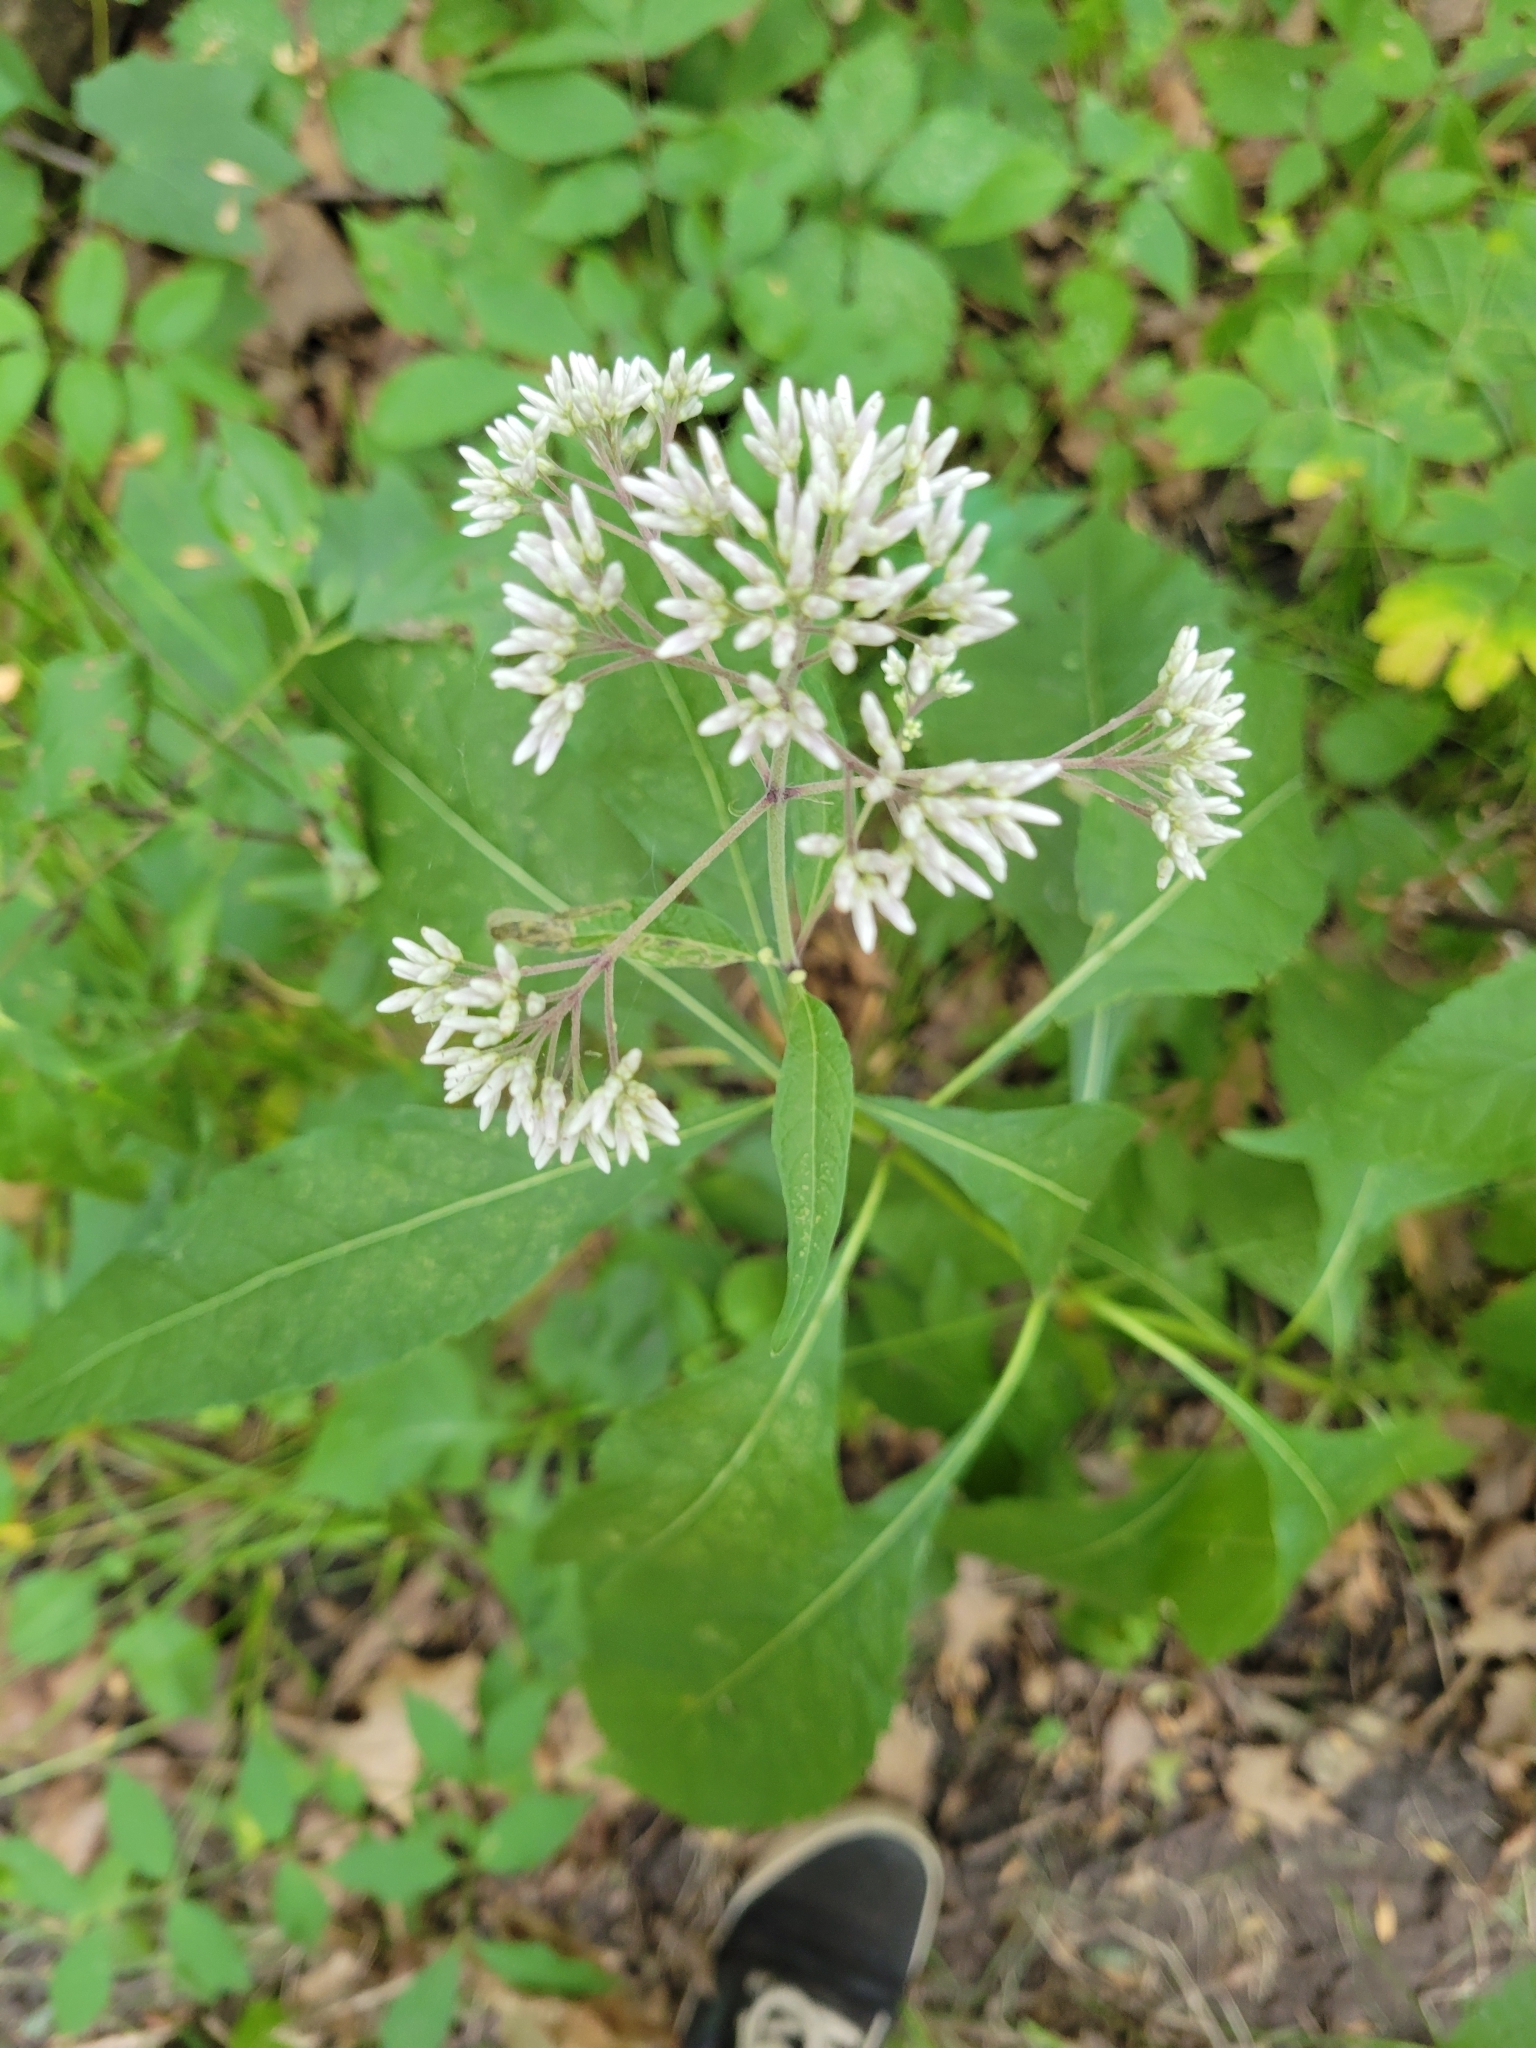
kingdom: Plantae
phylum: Tracheophyta
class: Magnoliopsida
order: Asterales
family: Asteraceae
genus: Eutrochium
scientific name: Eutrochium purpureum
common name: Gravelroot
